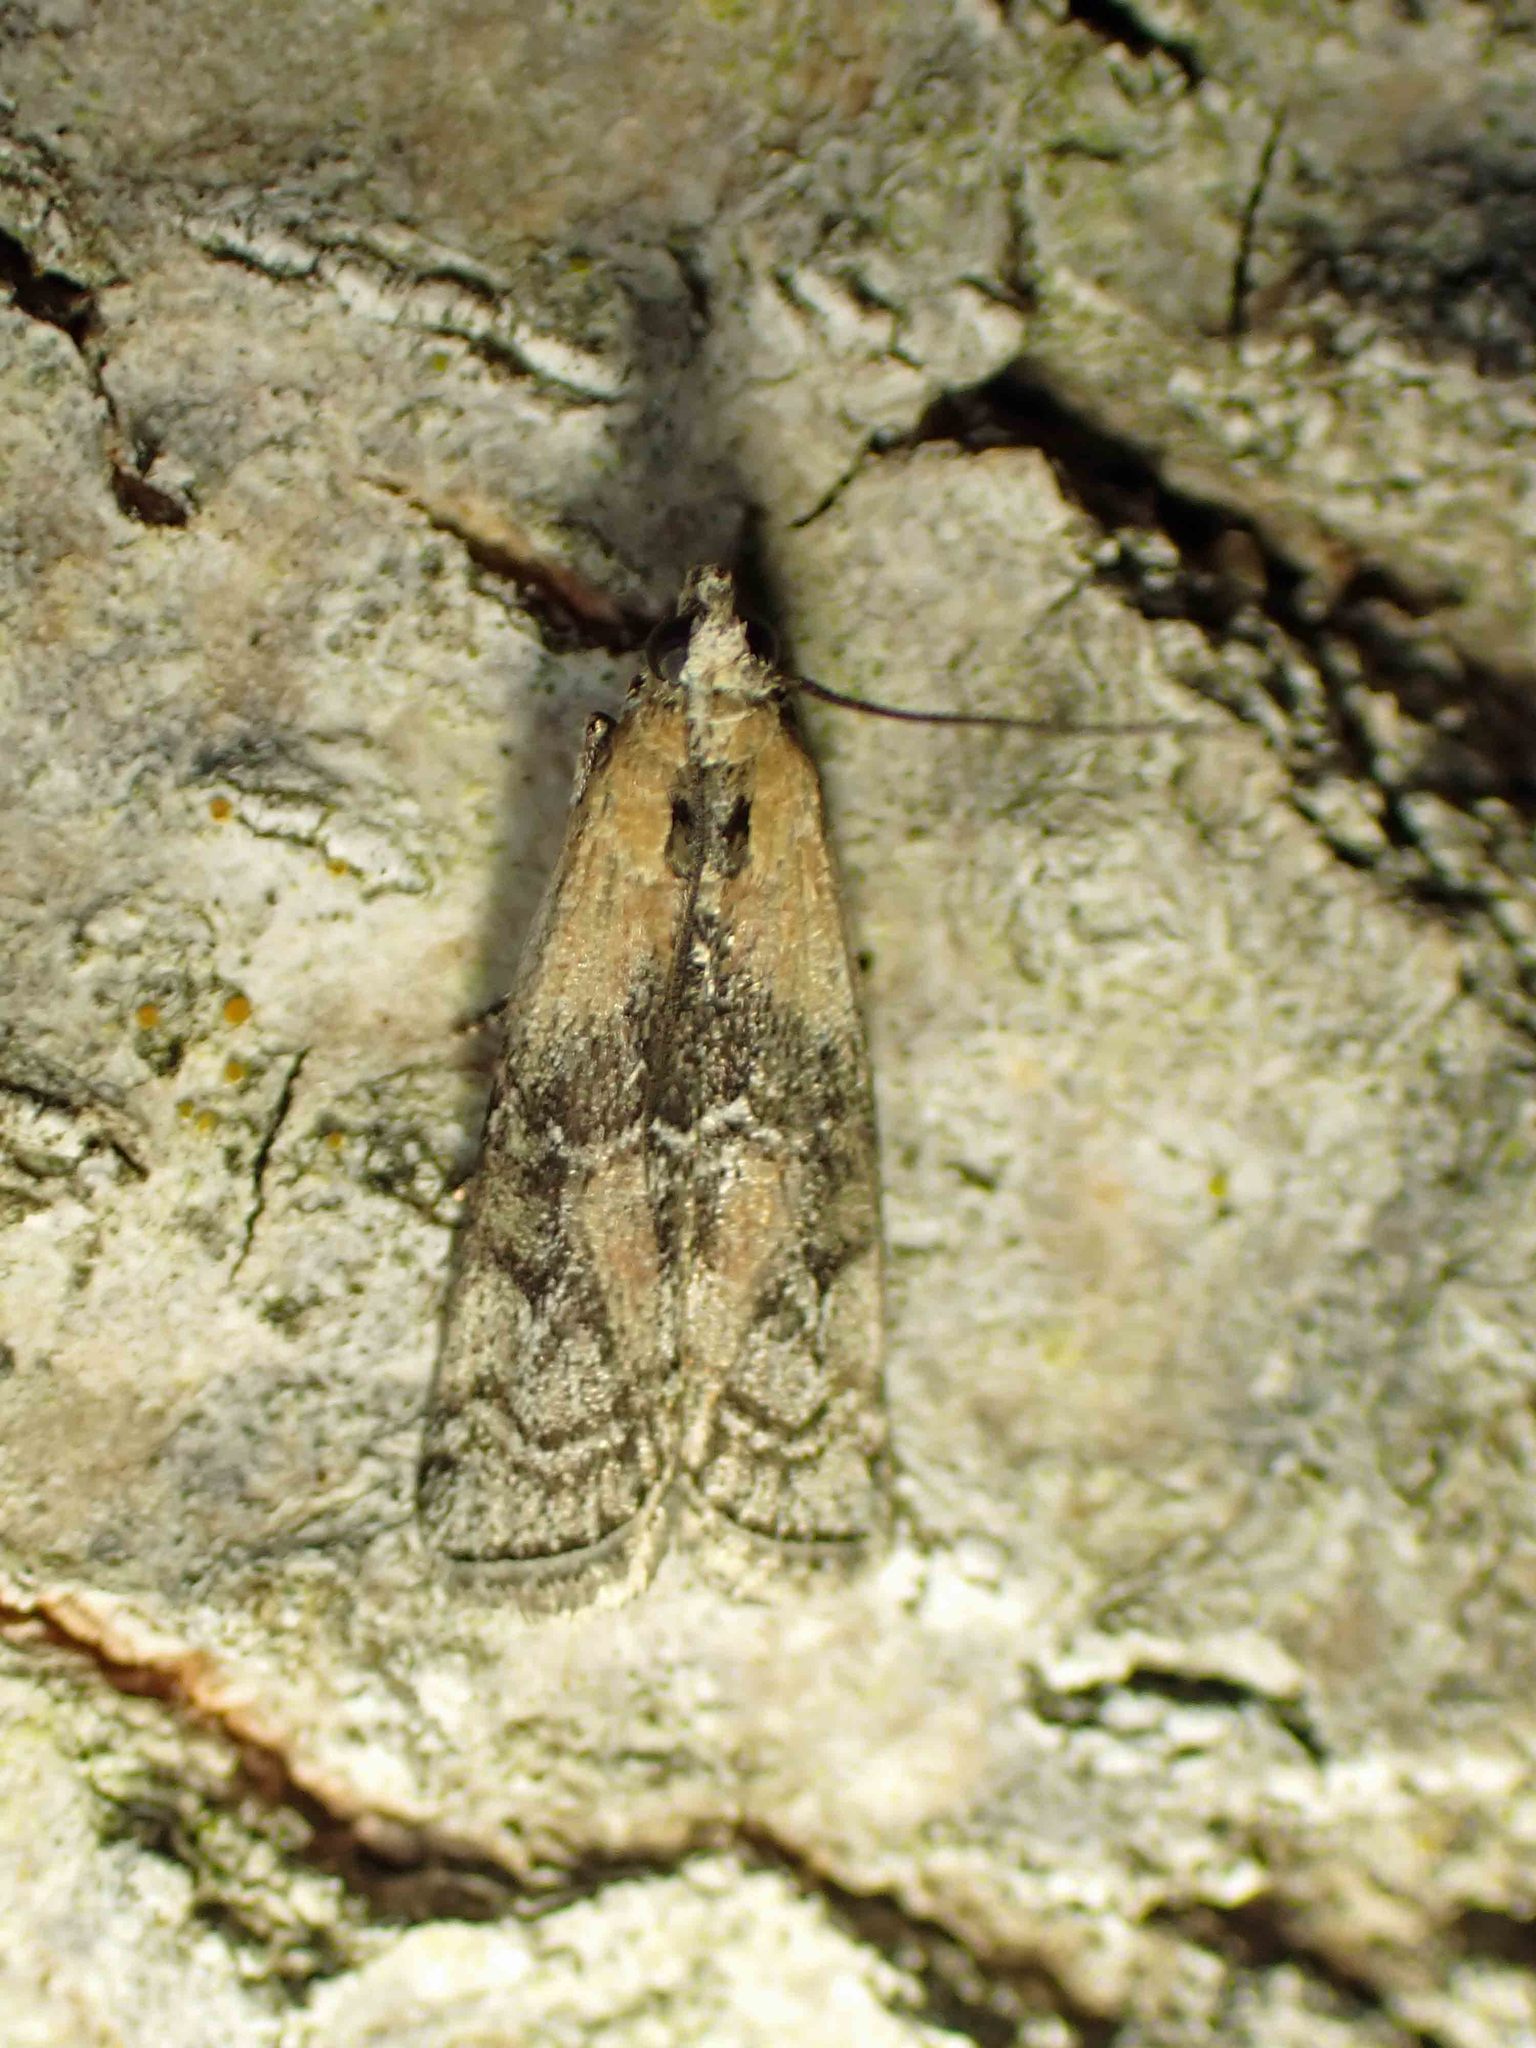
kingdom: Animalia
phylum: Arthropoda
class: Insecta
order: Lepidoptera
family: Pyralidae
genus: Glyptocera
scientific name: Glyptocera consobrinella
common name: Viburnum glyptocera moth
